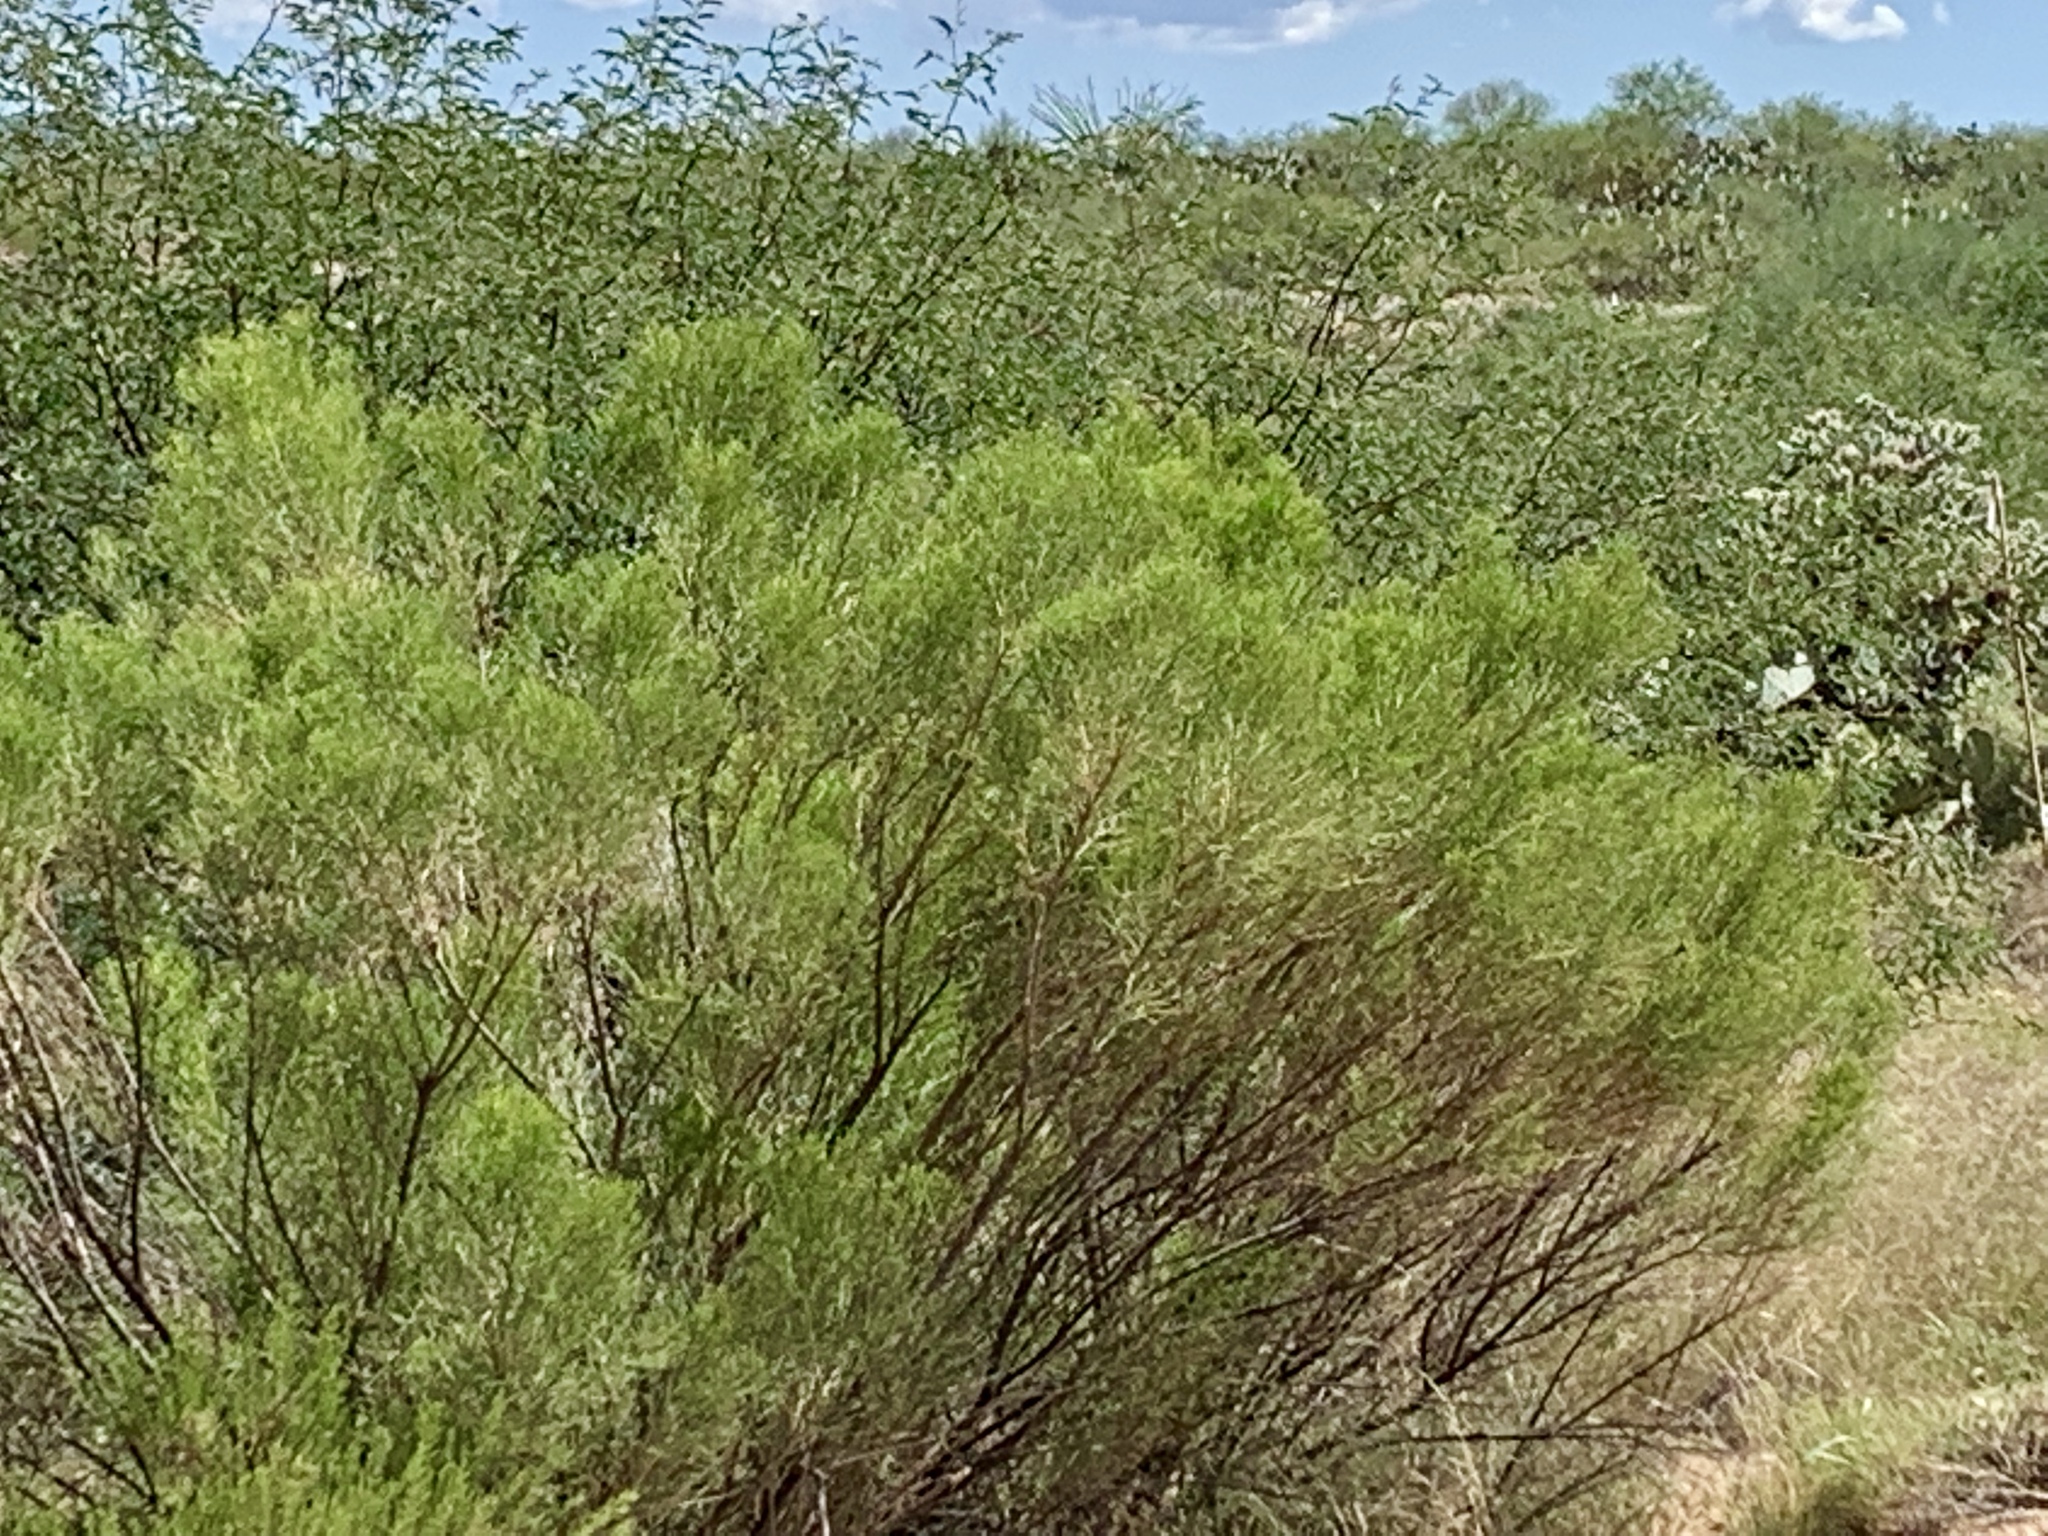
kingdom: Plantae
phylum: Tracheophyta
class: Magnoliopsida
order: Asterales
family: Asteraceae
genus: Baccharis
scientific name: Baccharis sarothroides
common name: Desert-broom
